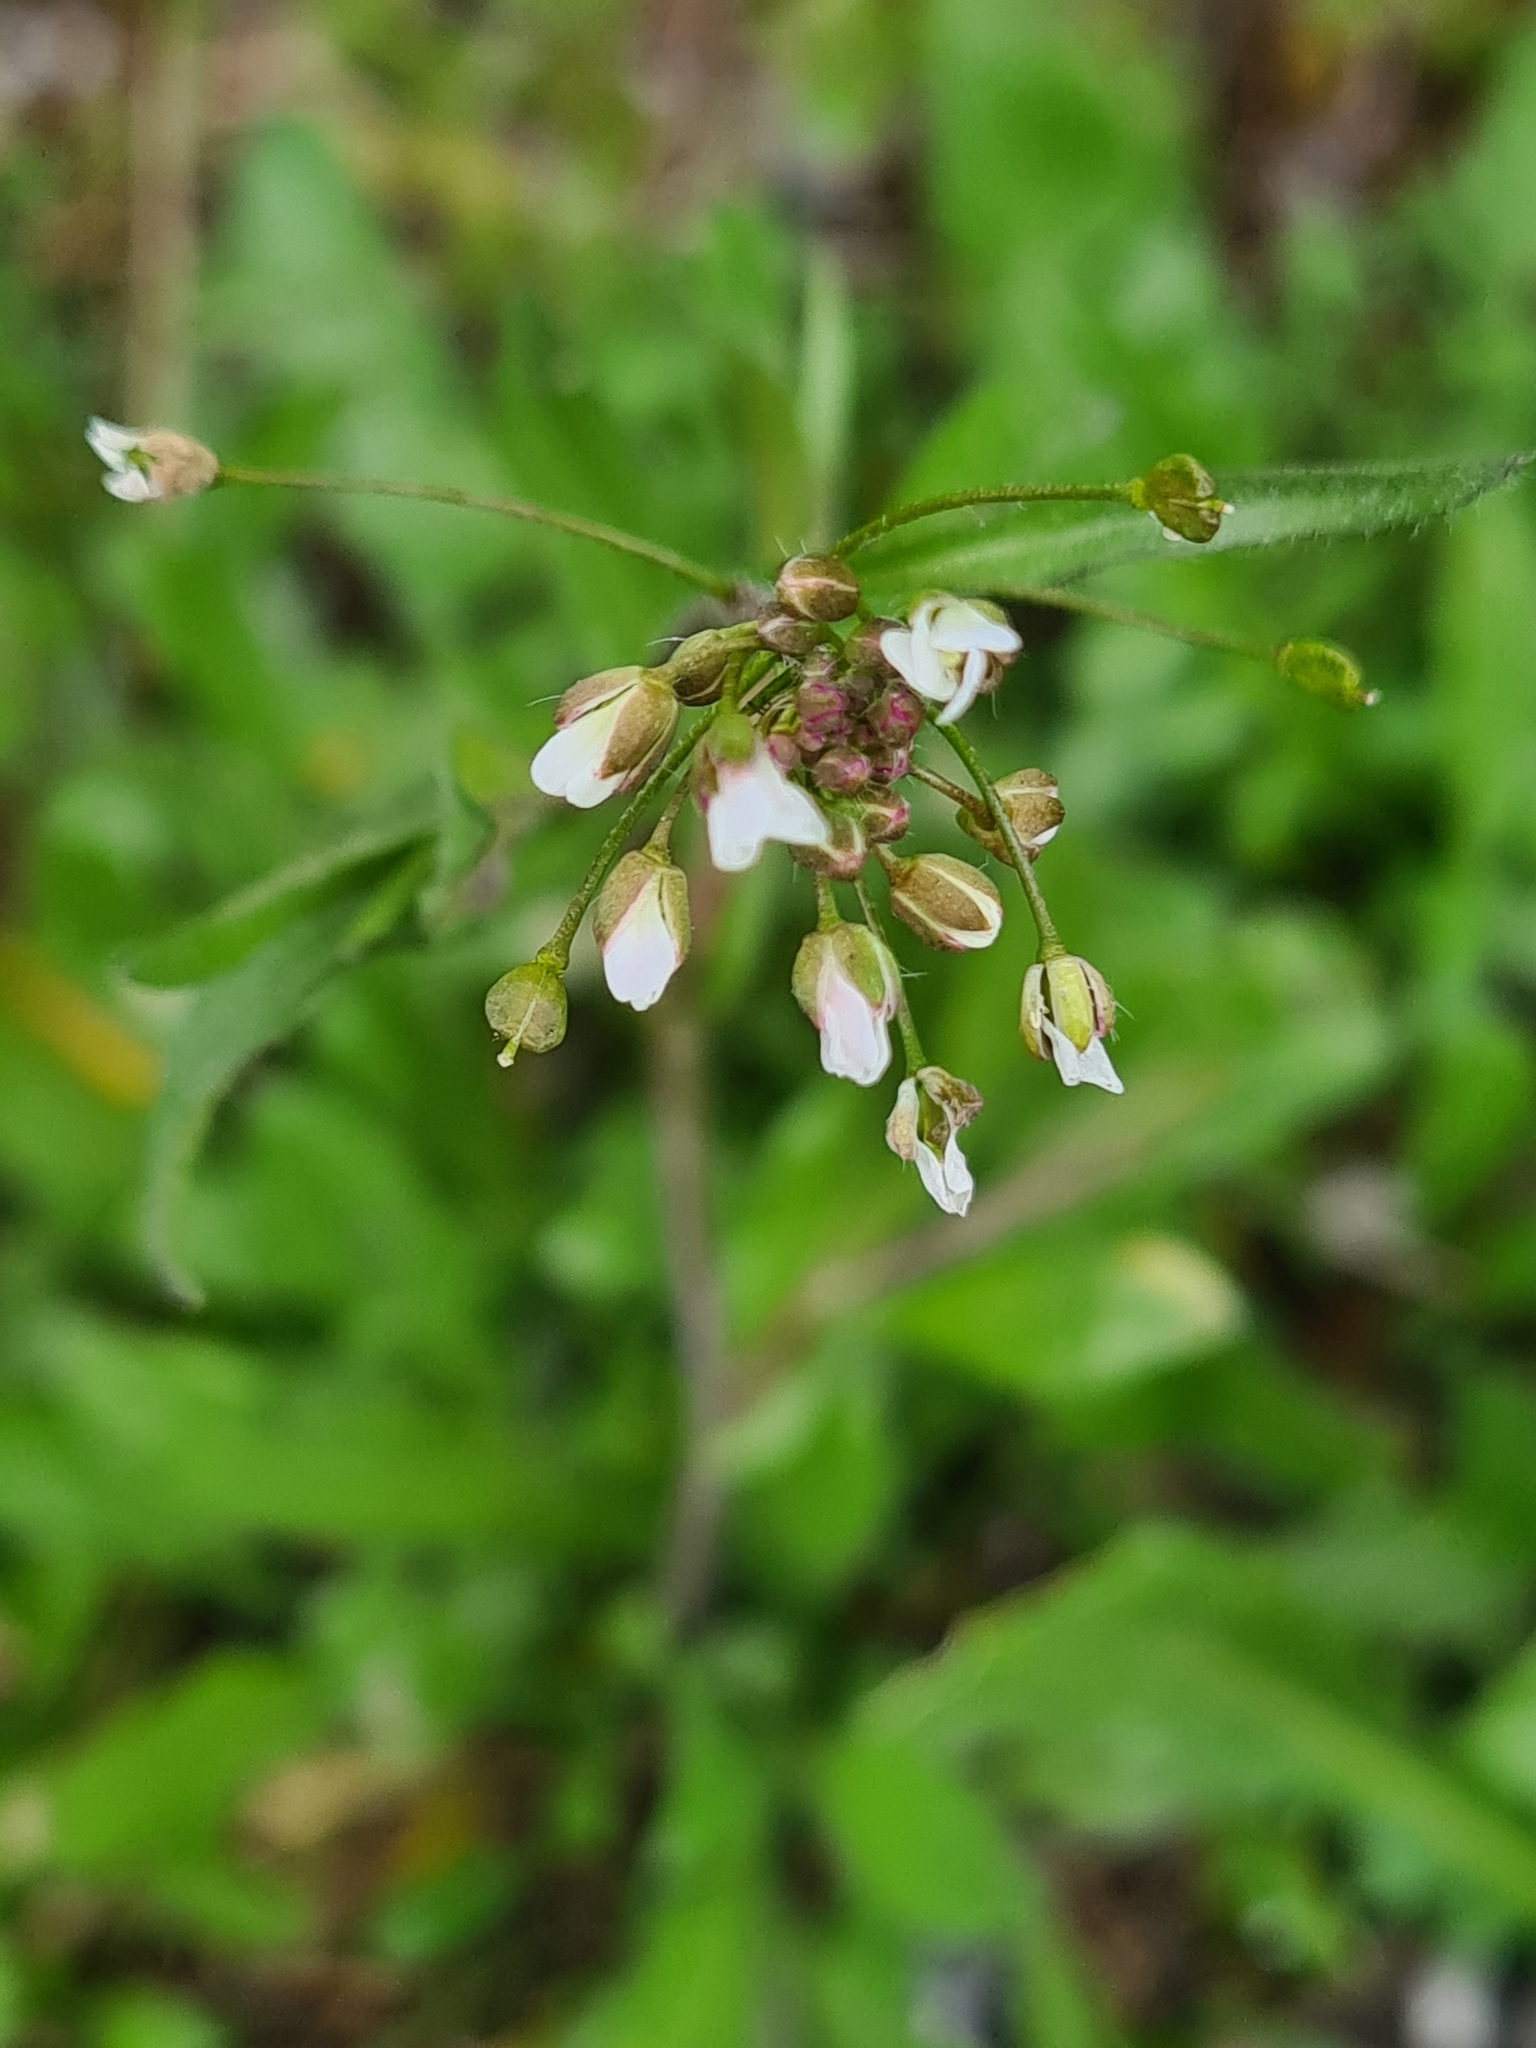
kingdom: Plantae
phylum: Tracheophyta
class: Magnoliopsida
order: Brassicales
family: Brassicaceae
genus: Capsella
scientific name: Capsella bursa-pastoris
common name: Shepherd's purse
